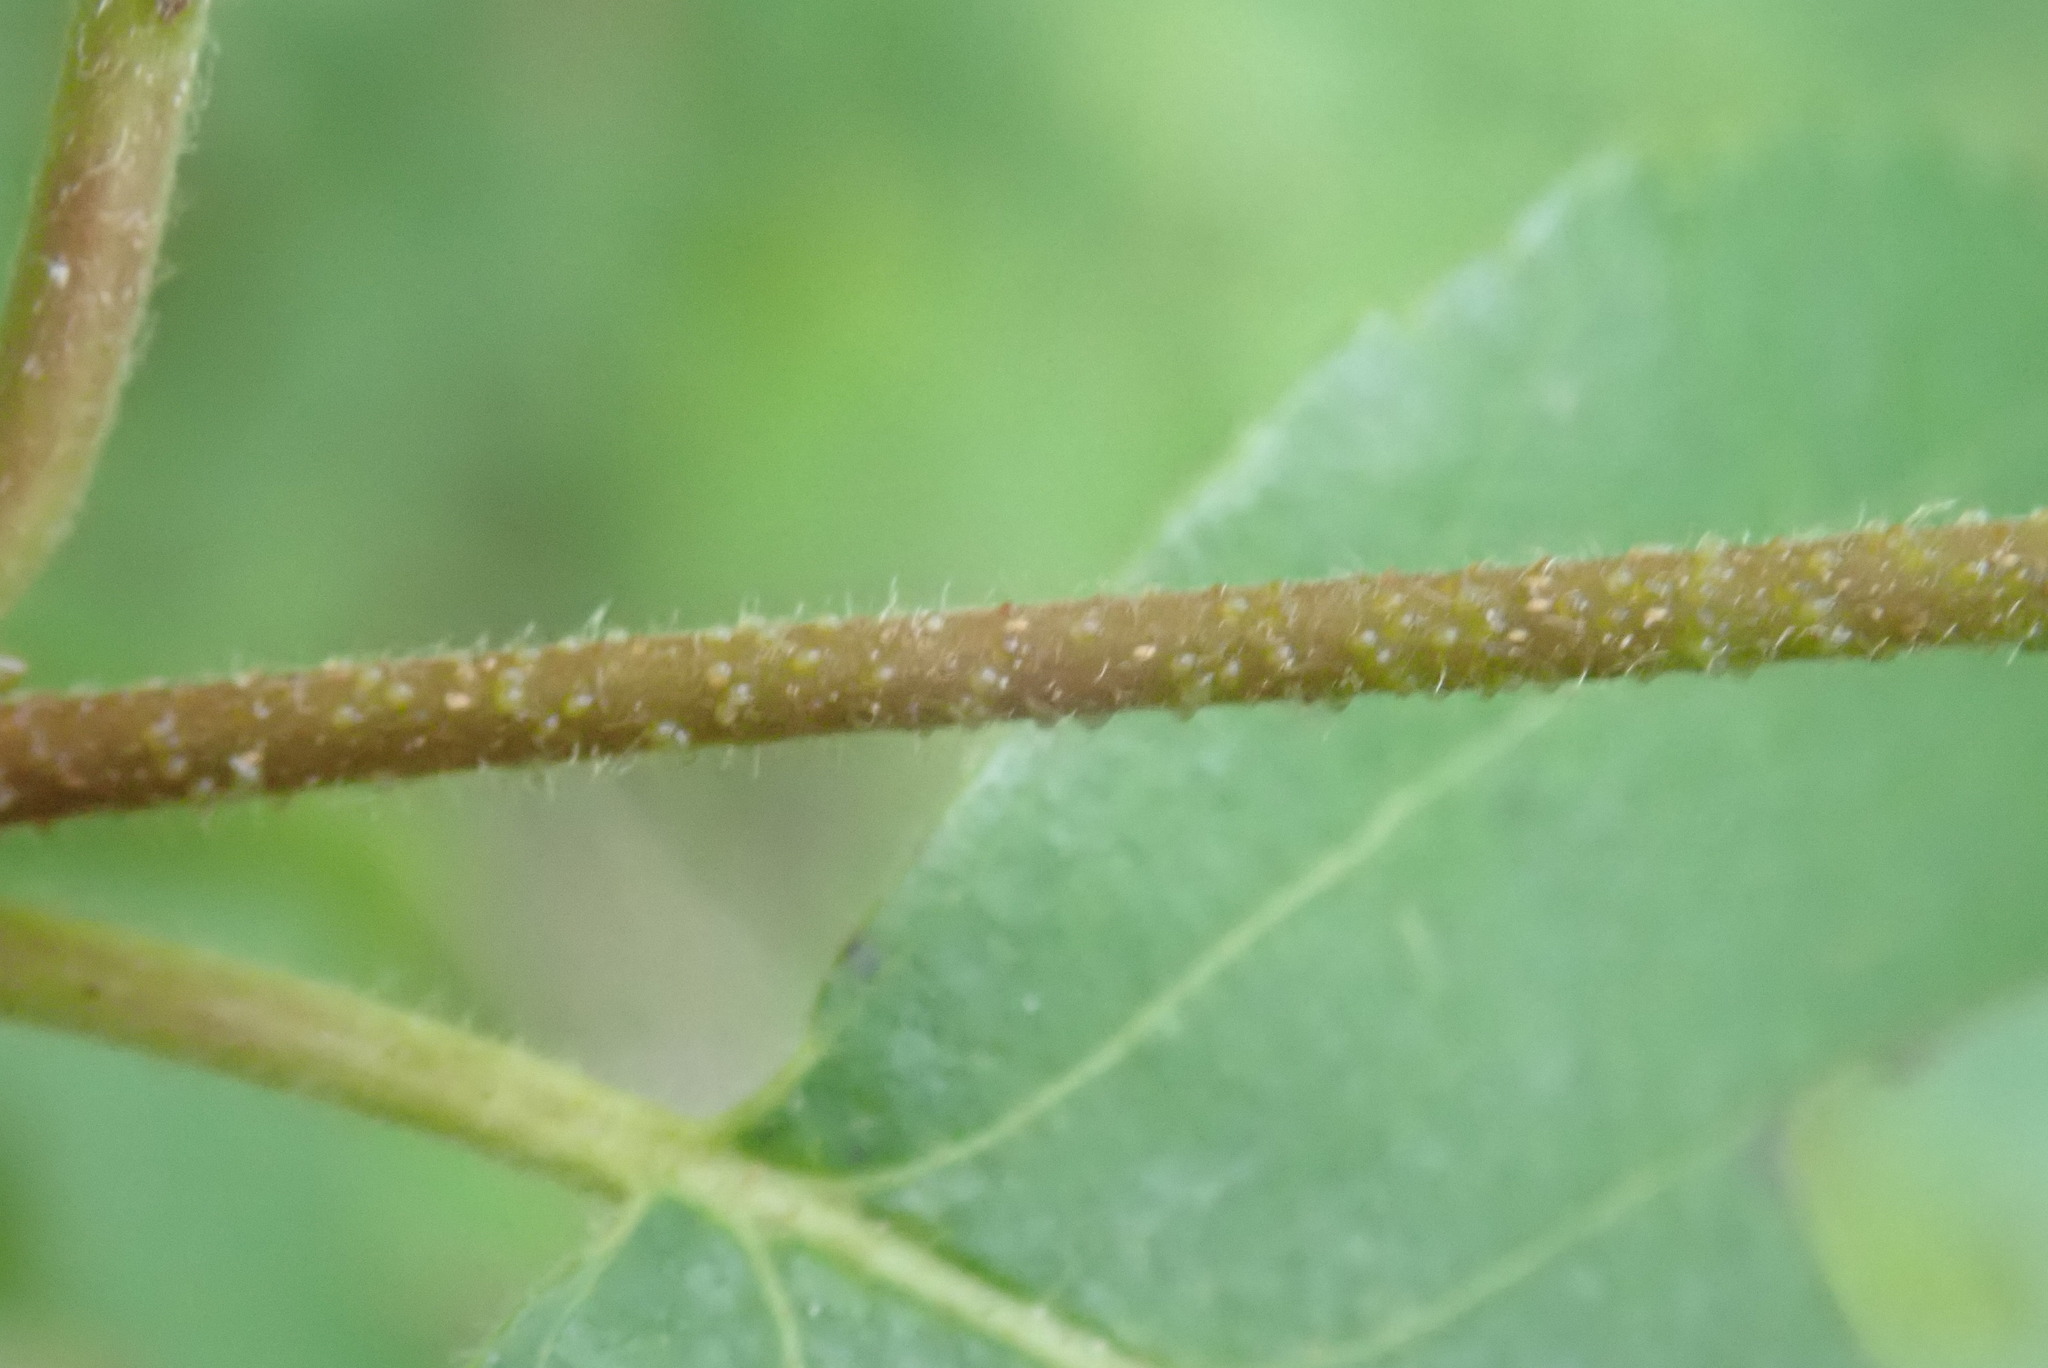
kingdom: Plantae
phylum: Tracheophyta
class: Magnoliopsida
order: Fagales
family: Betulaceae
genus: Betula
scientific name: Betula papyrifera
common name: Paper birch
